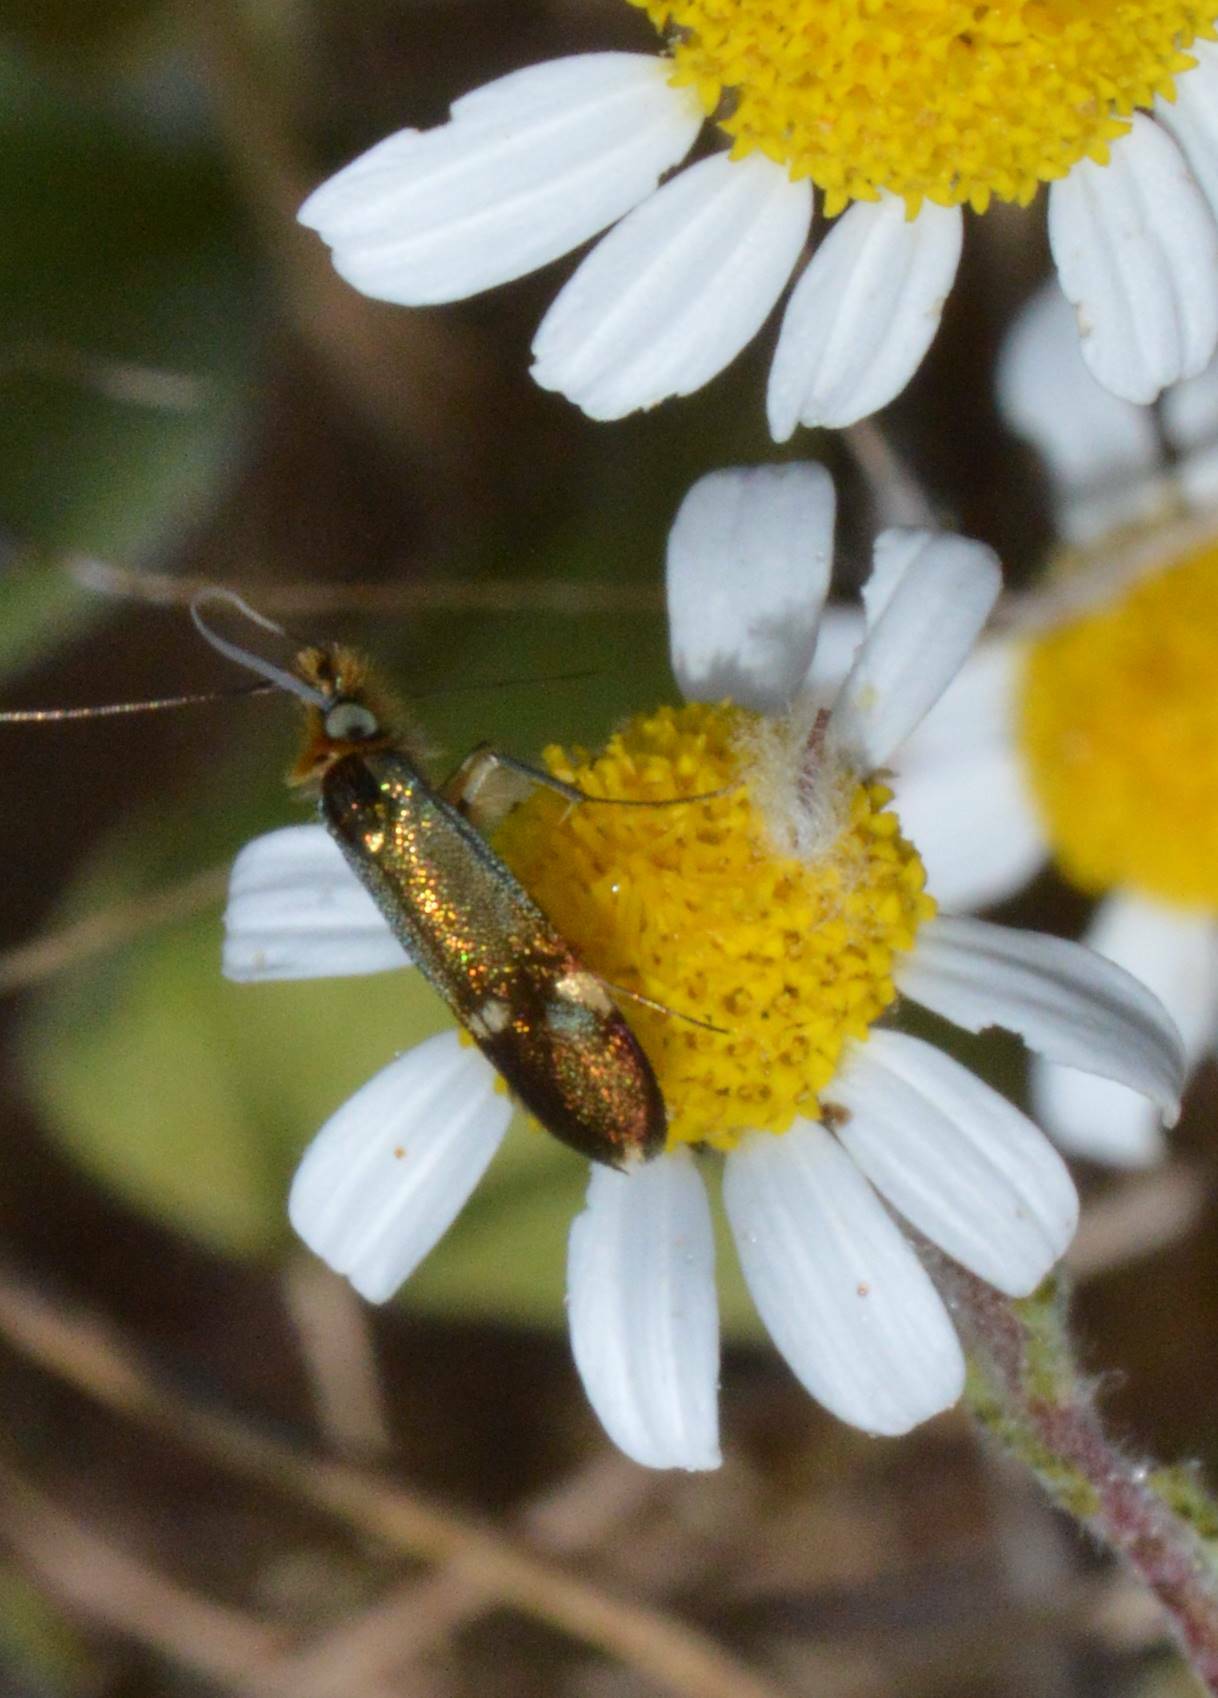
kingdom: Animalia
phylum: Arthropoda
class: Insecta
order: Lepidoptera
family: Adelidae
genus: Nemophora
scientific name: Nemophora raddaella
